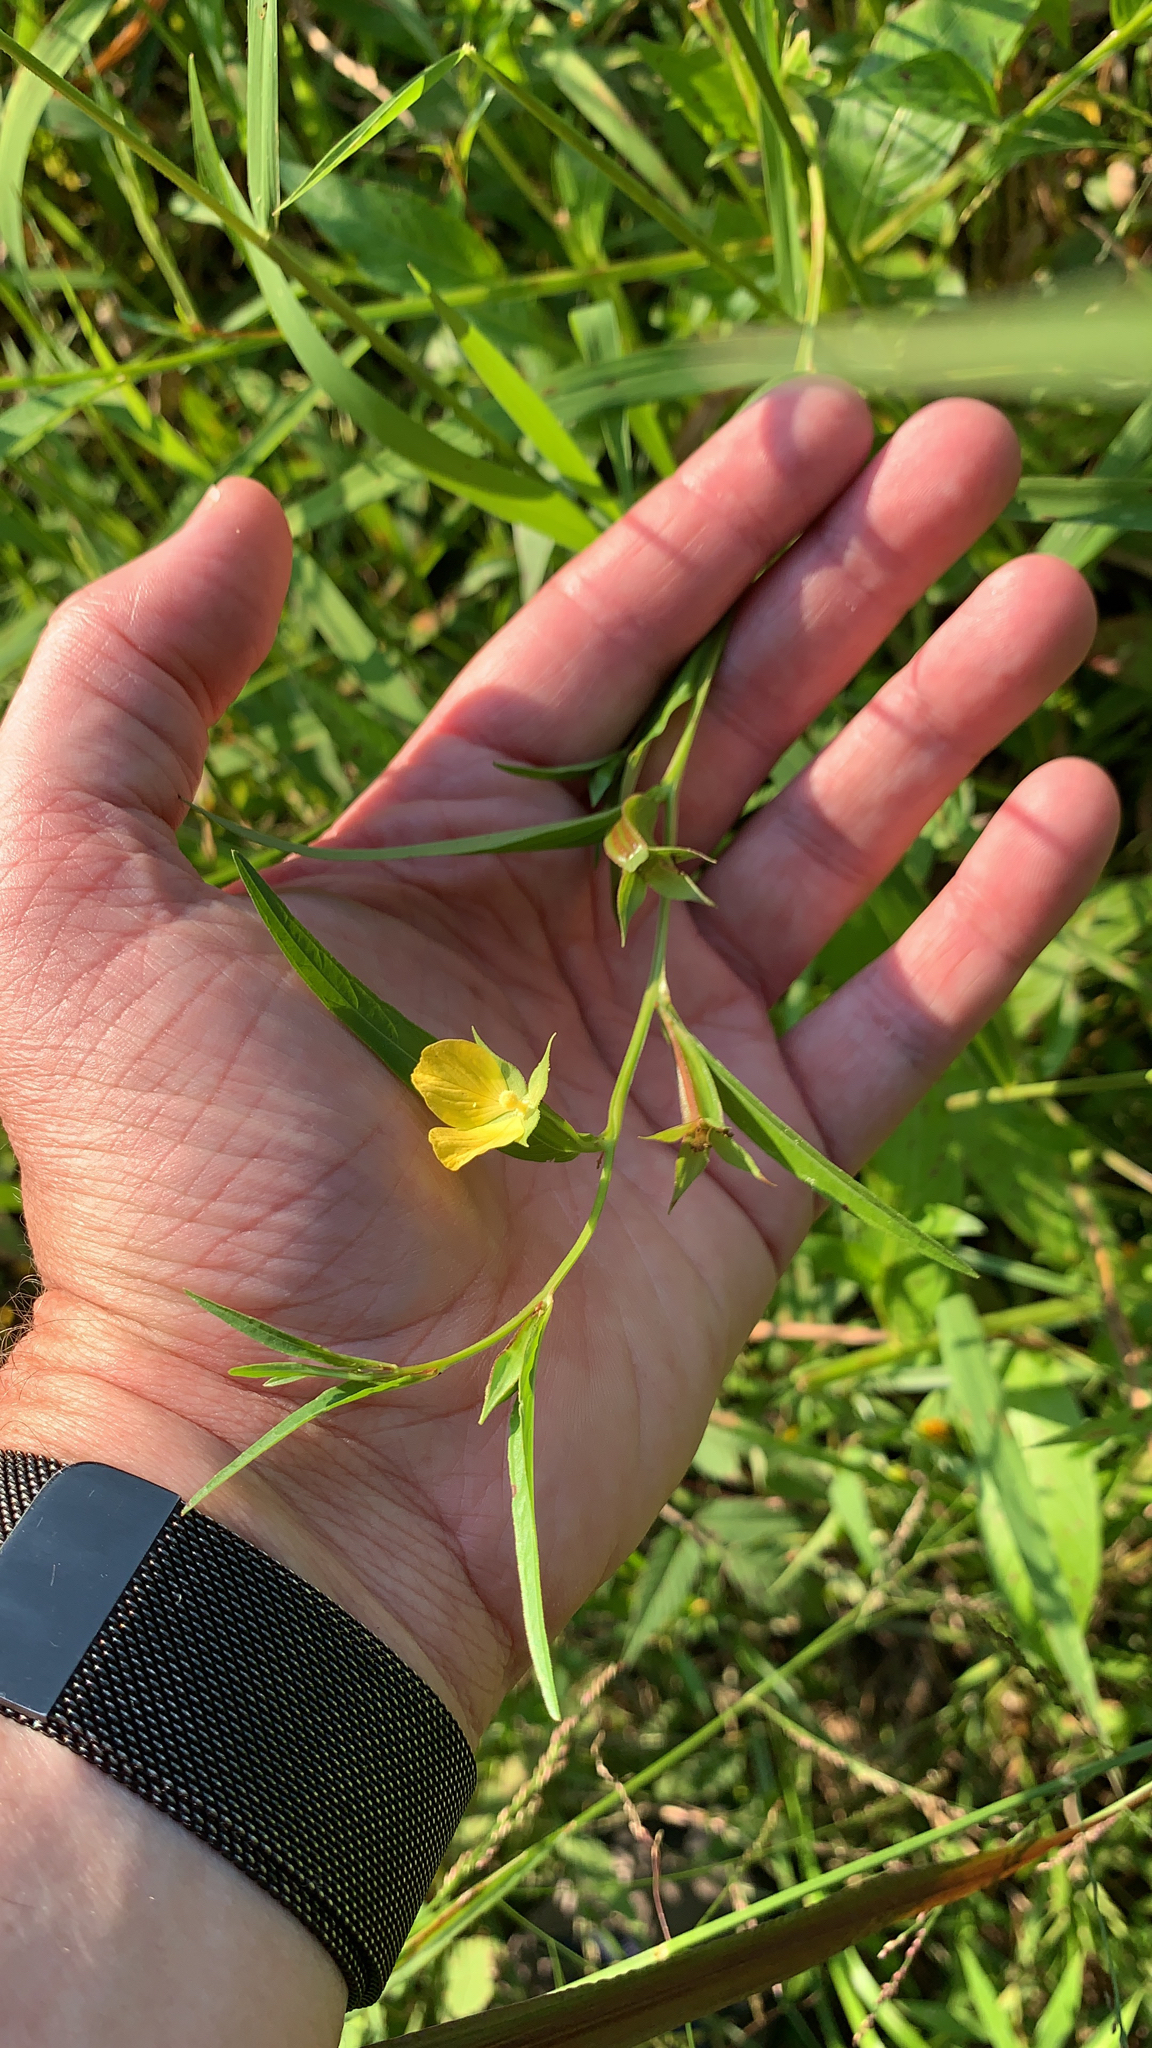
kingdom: Plantae
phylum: Tracheophyta
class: Magnoliopsida
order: Myrtales
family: Onagraceae
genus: Ludwigia
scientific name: Ludwigia decurrens
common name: Winged water-primrose
